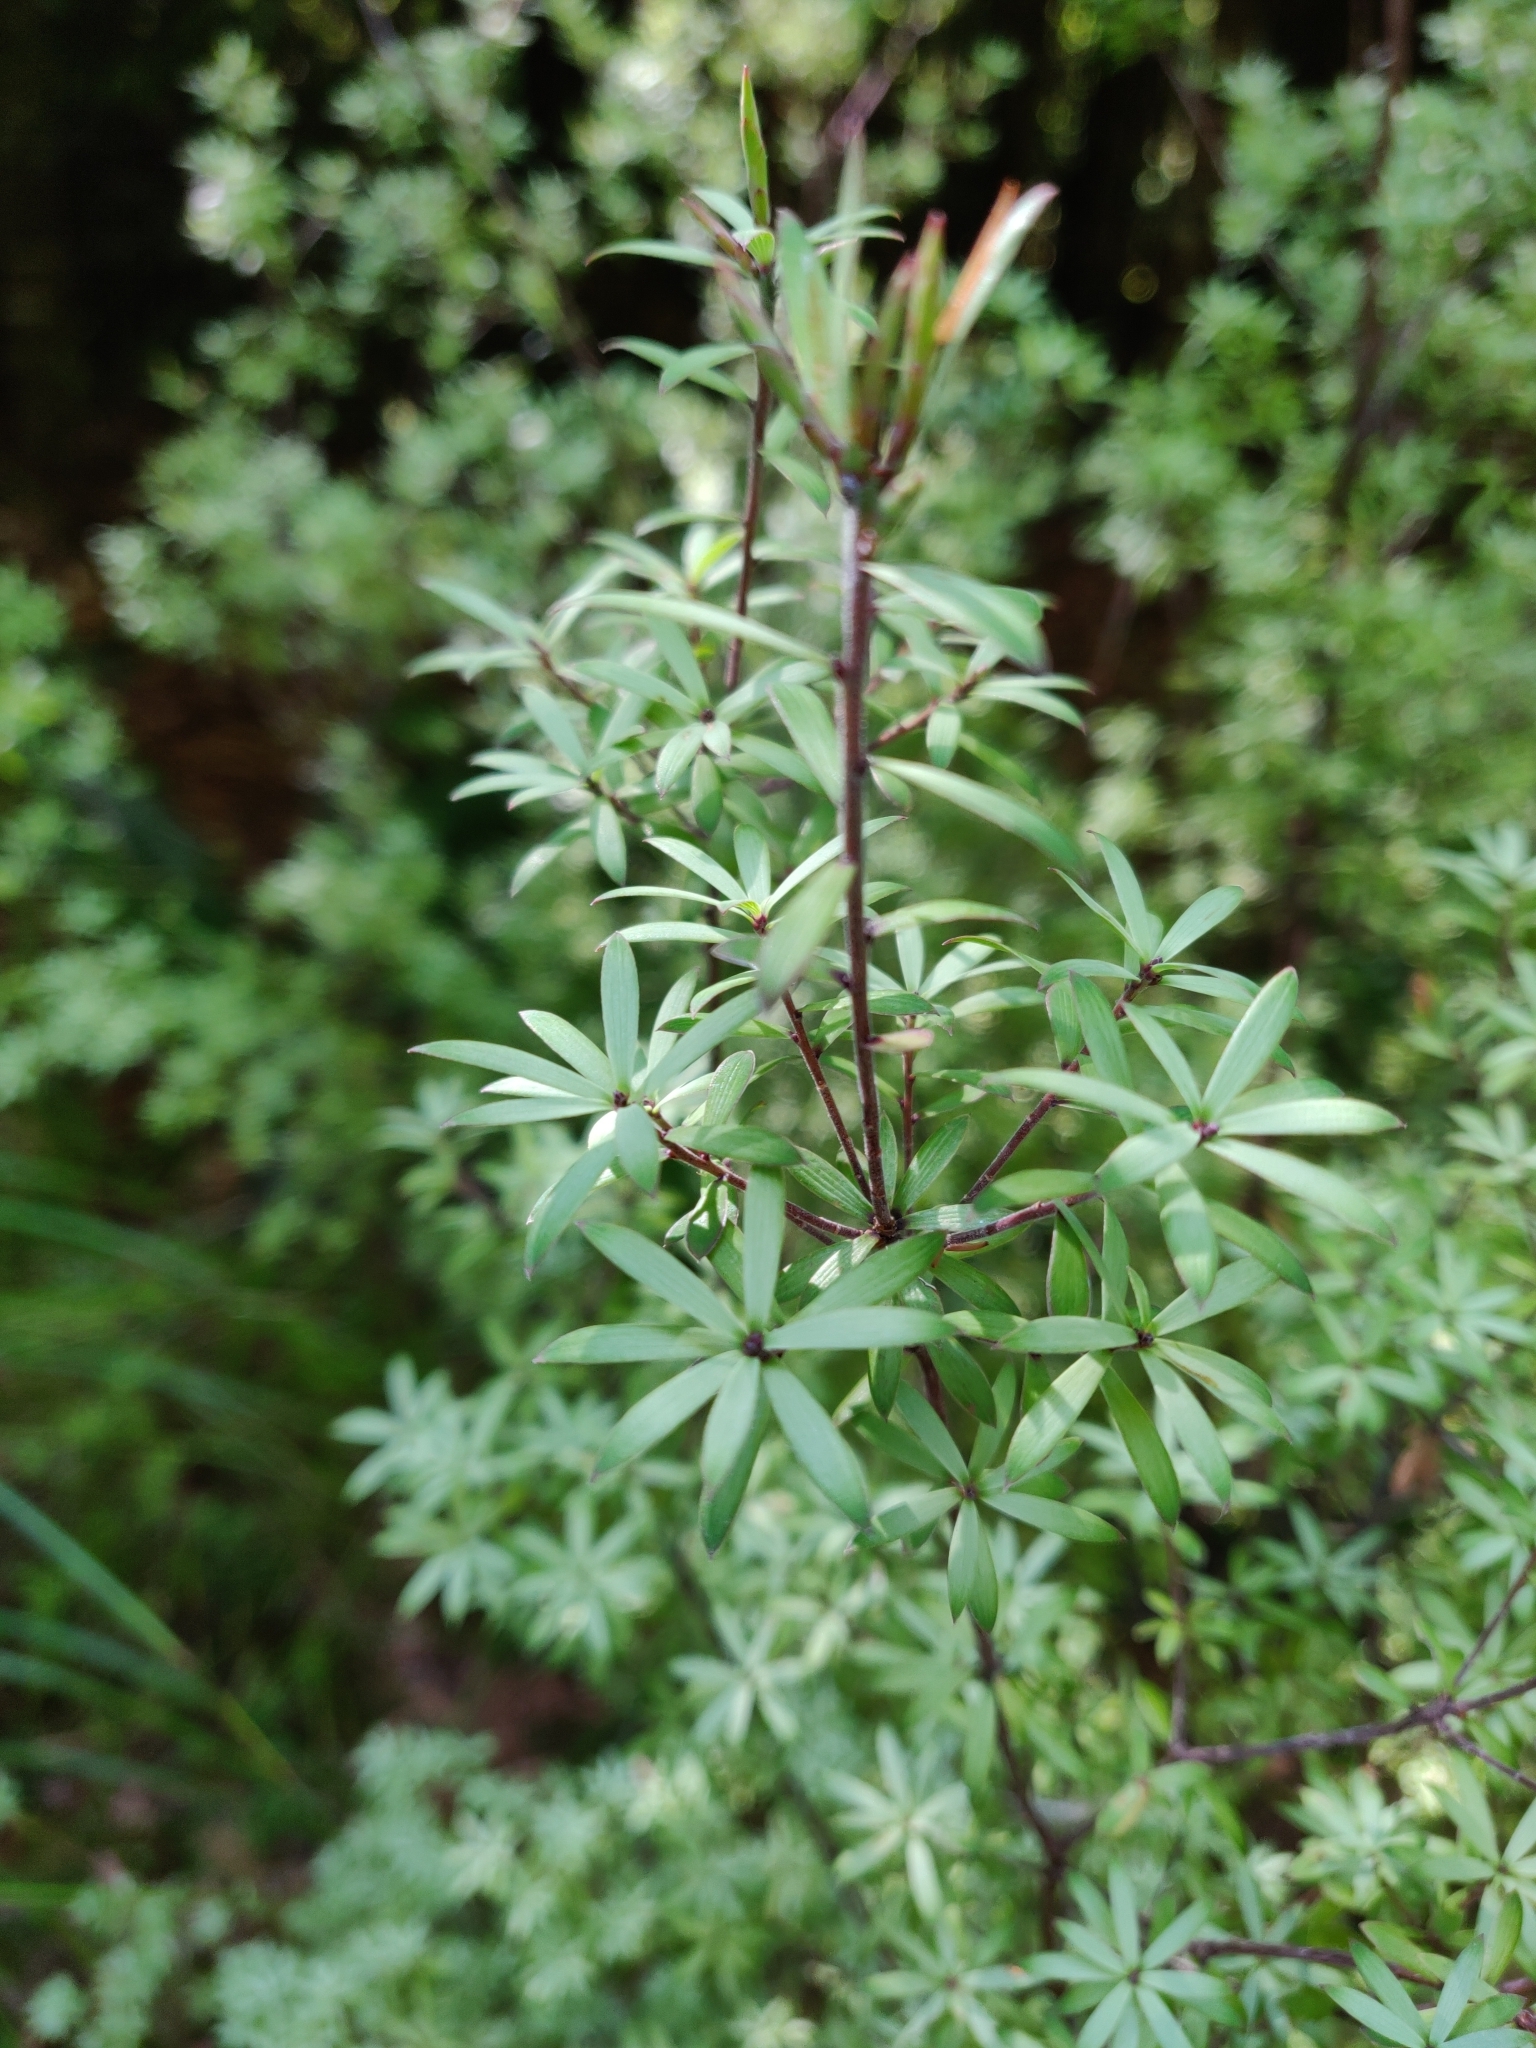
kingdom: Plantae
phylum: Tracheophyta
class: Magnoliopsida
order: Ericales
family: Ericaceae
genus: Leucopogon
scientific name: Leucopogon fasciculatus
